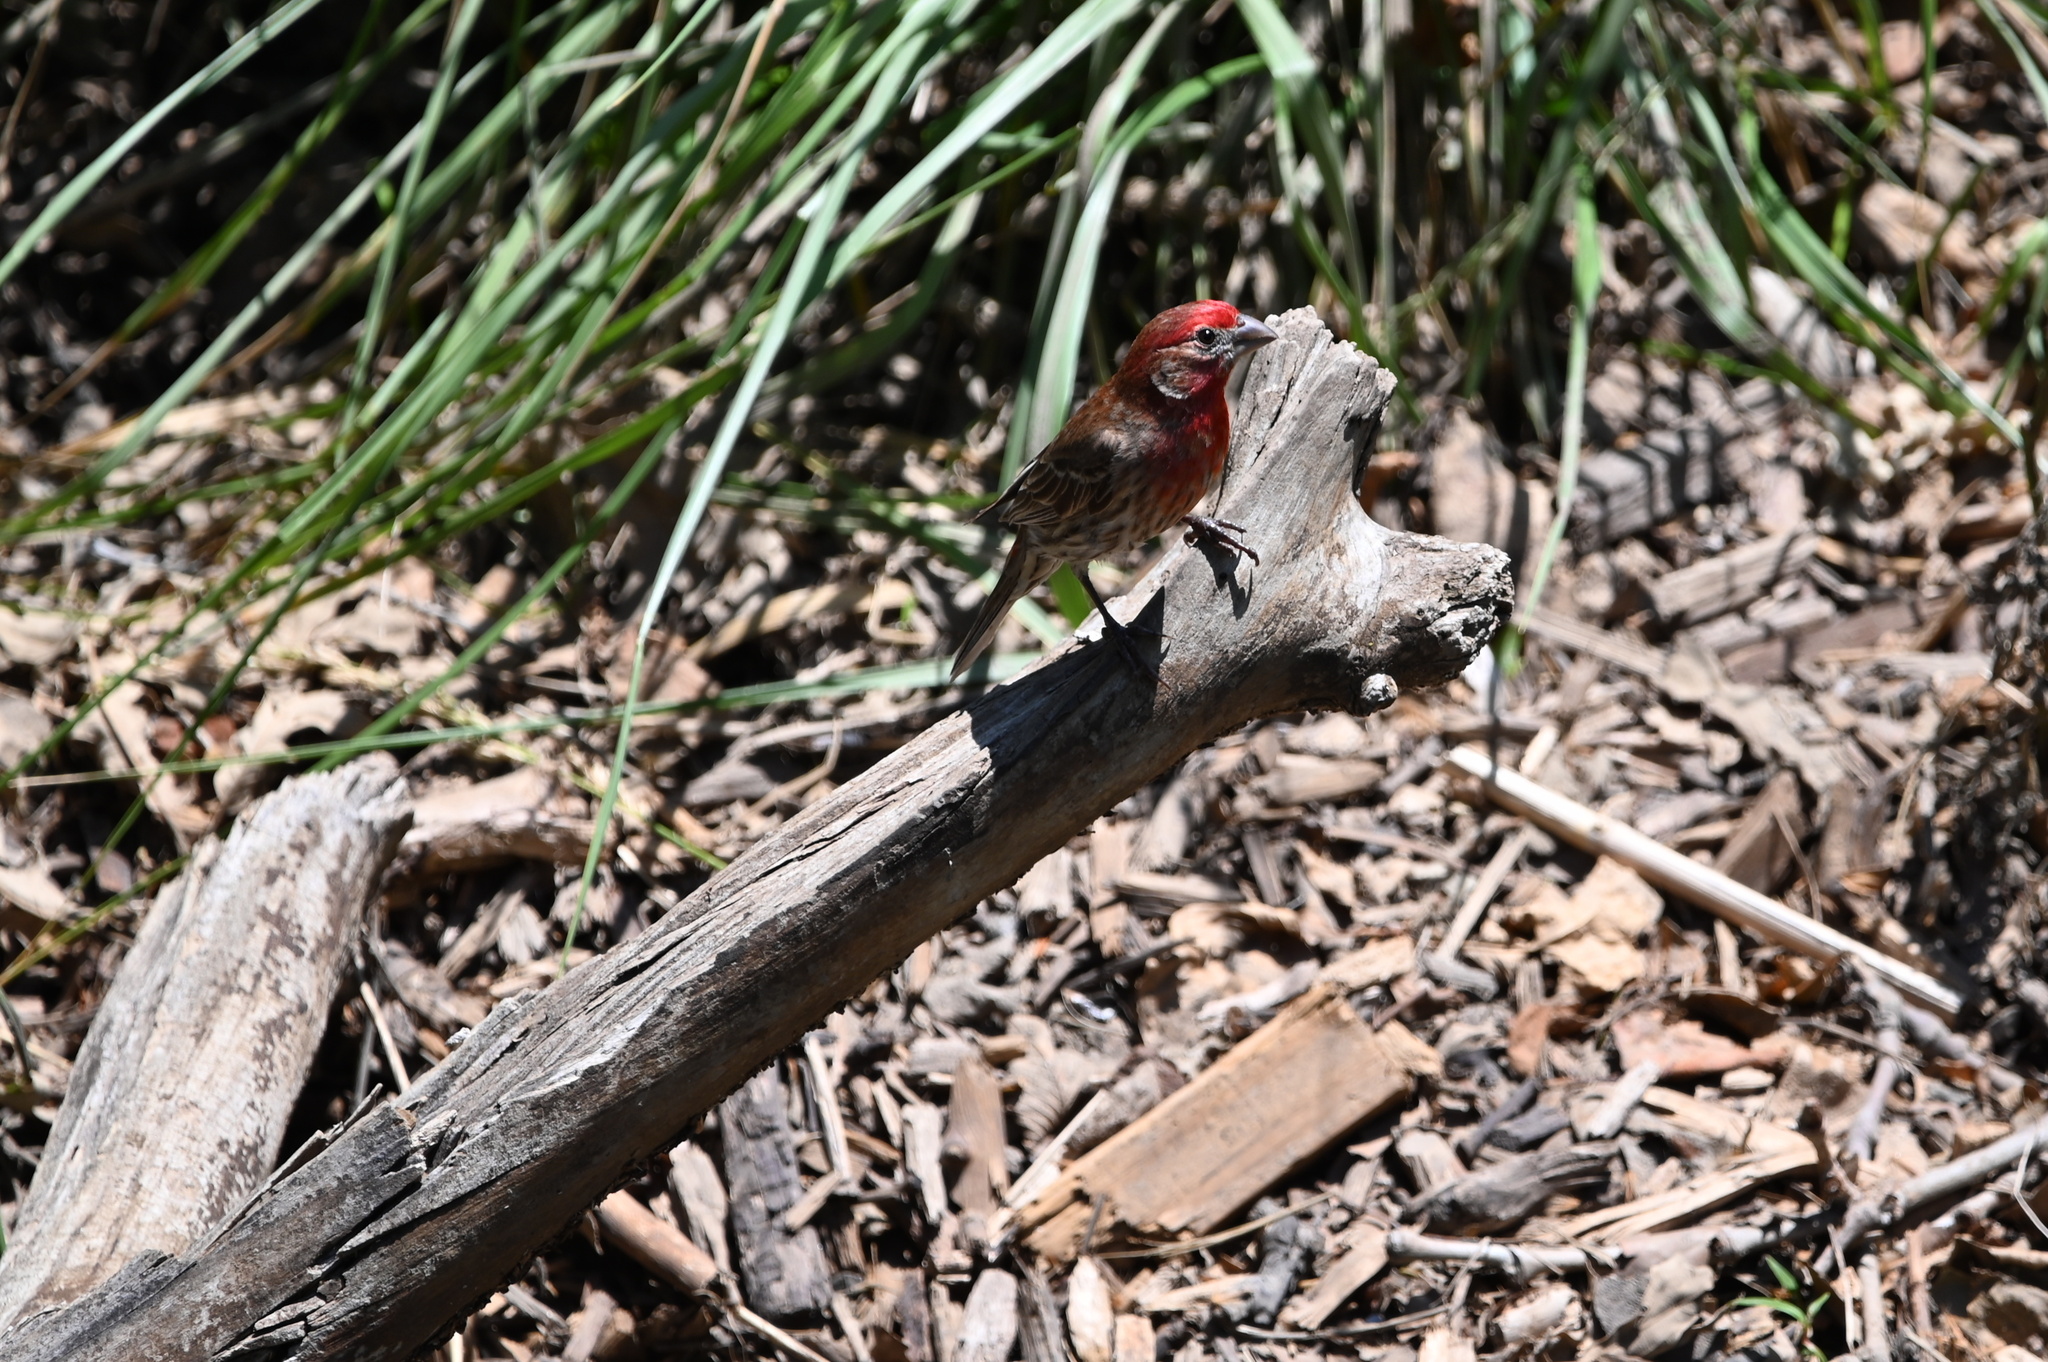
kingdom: Animalia
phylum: Chordata
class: Aves
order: Passeriformes
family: Fringillidae
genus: Haemorhous
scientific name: Haemorhous mexicanus
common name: House finch
